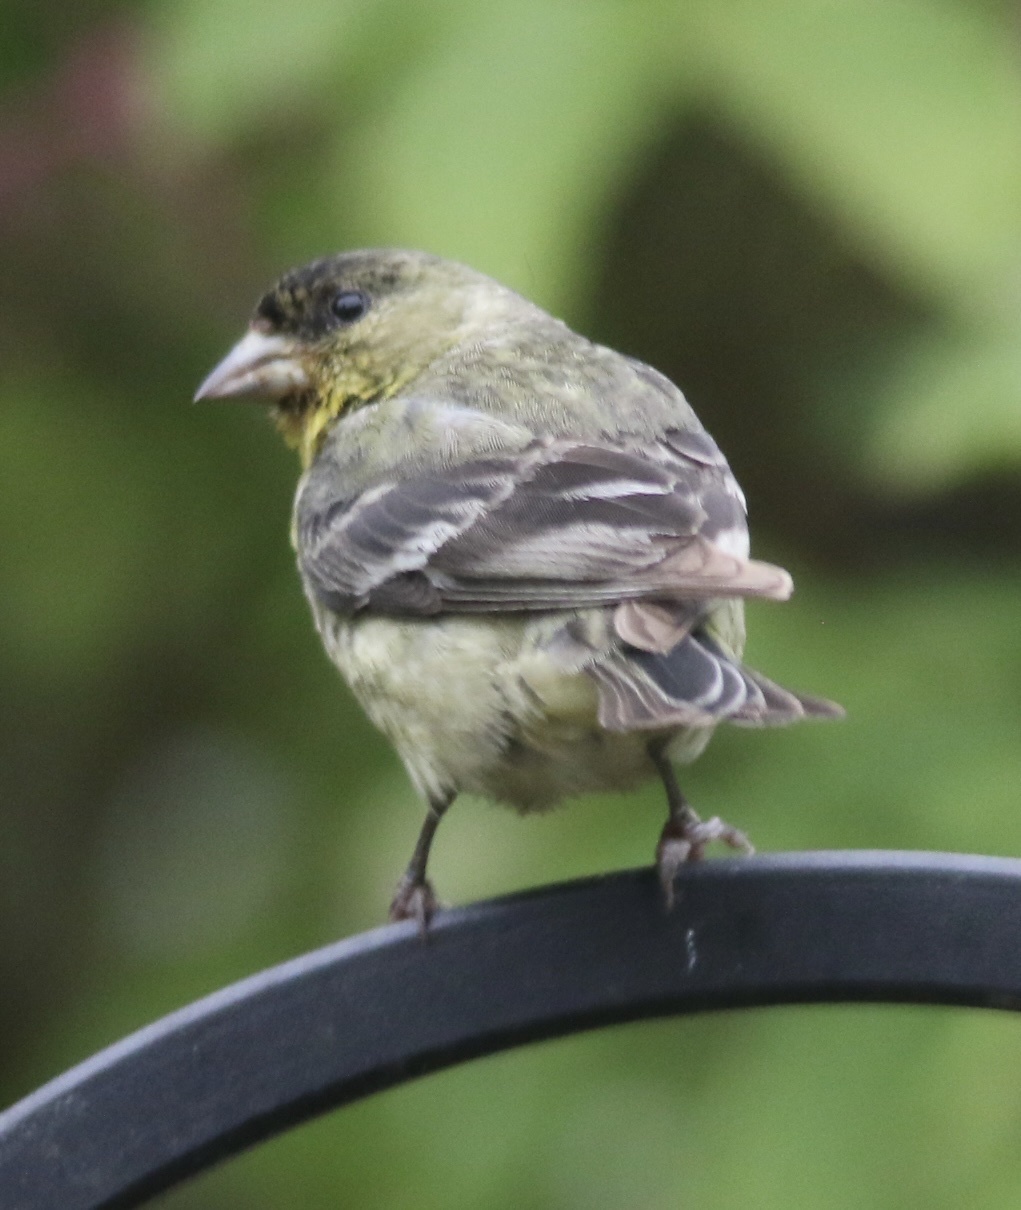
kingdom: Animalia
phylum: Chordata
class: Aves
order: Passeriformes
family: Fringillidae
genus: Spinus
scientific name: Spinus psaltria
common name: Lesser goldfinch
